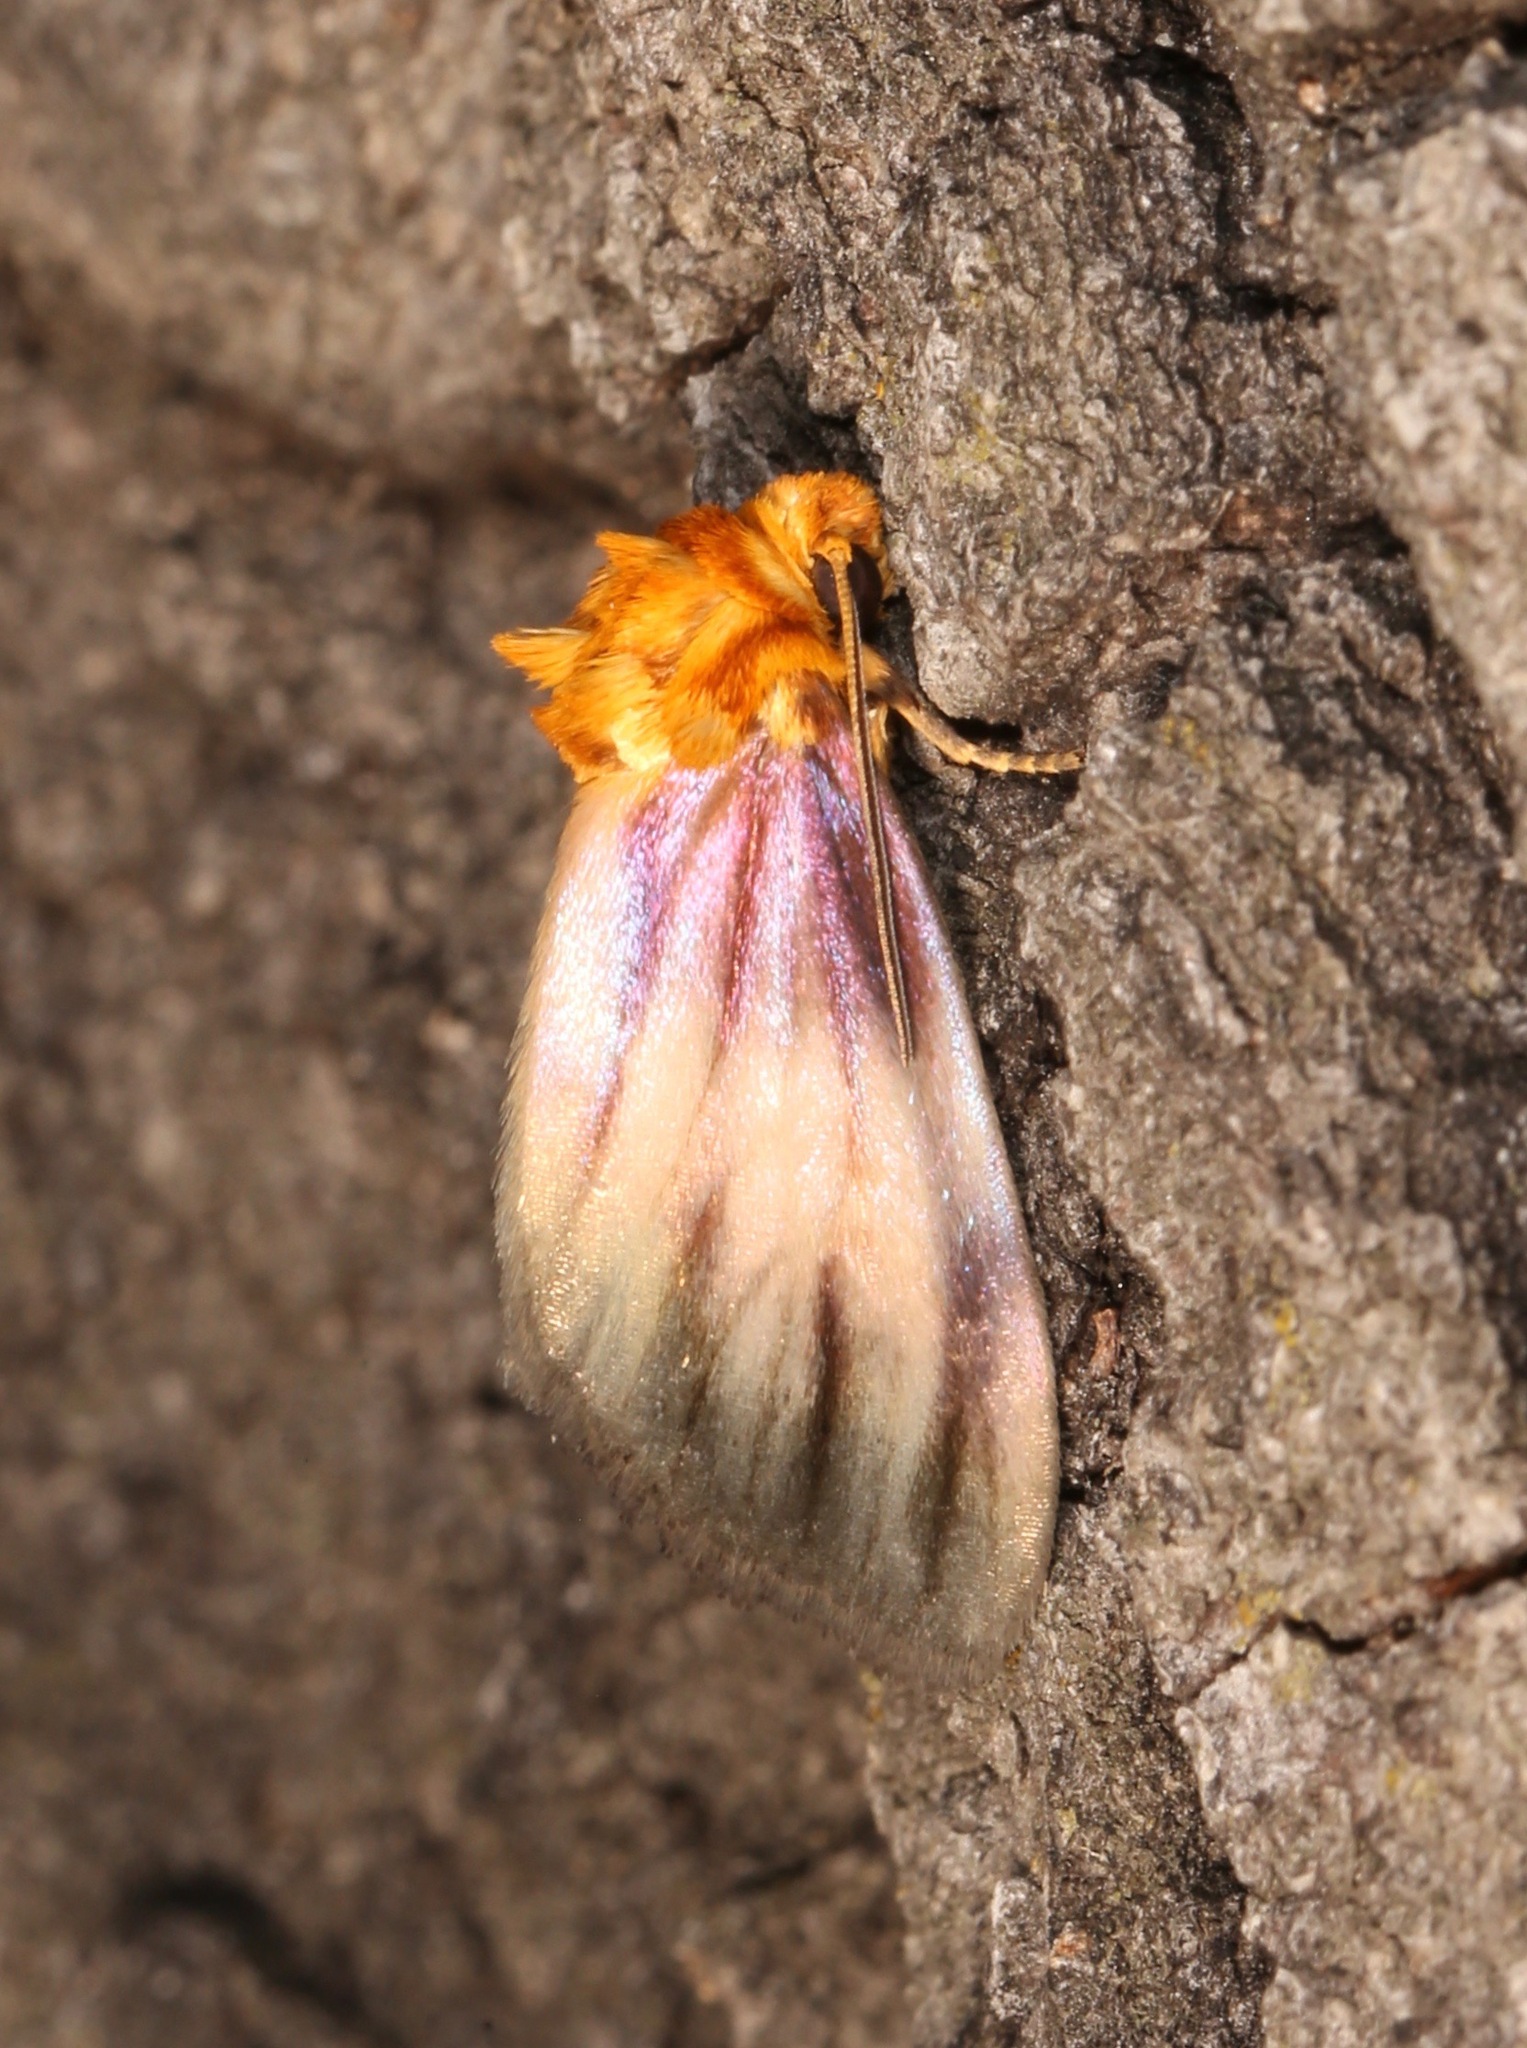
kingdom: Animalia
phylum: Arthropoda
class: Insecta
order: Lepidoptera
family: Noctuidae
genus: Antaplaga
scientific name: Antaplaga plesioglauca
